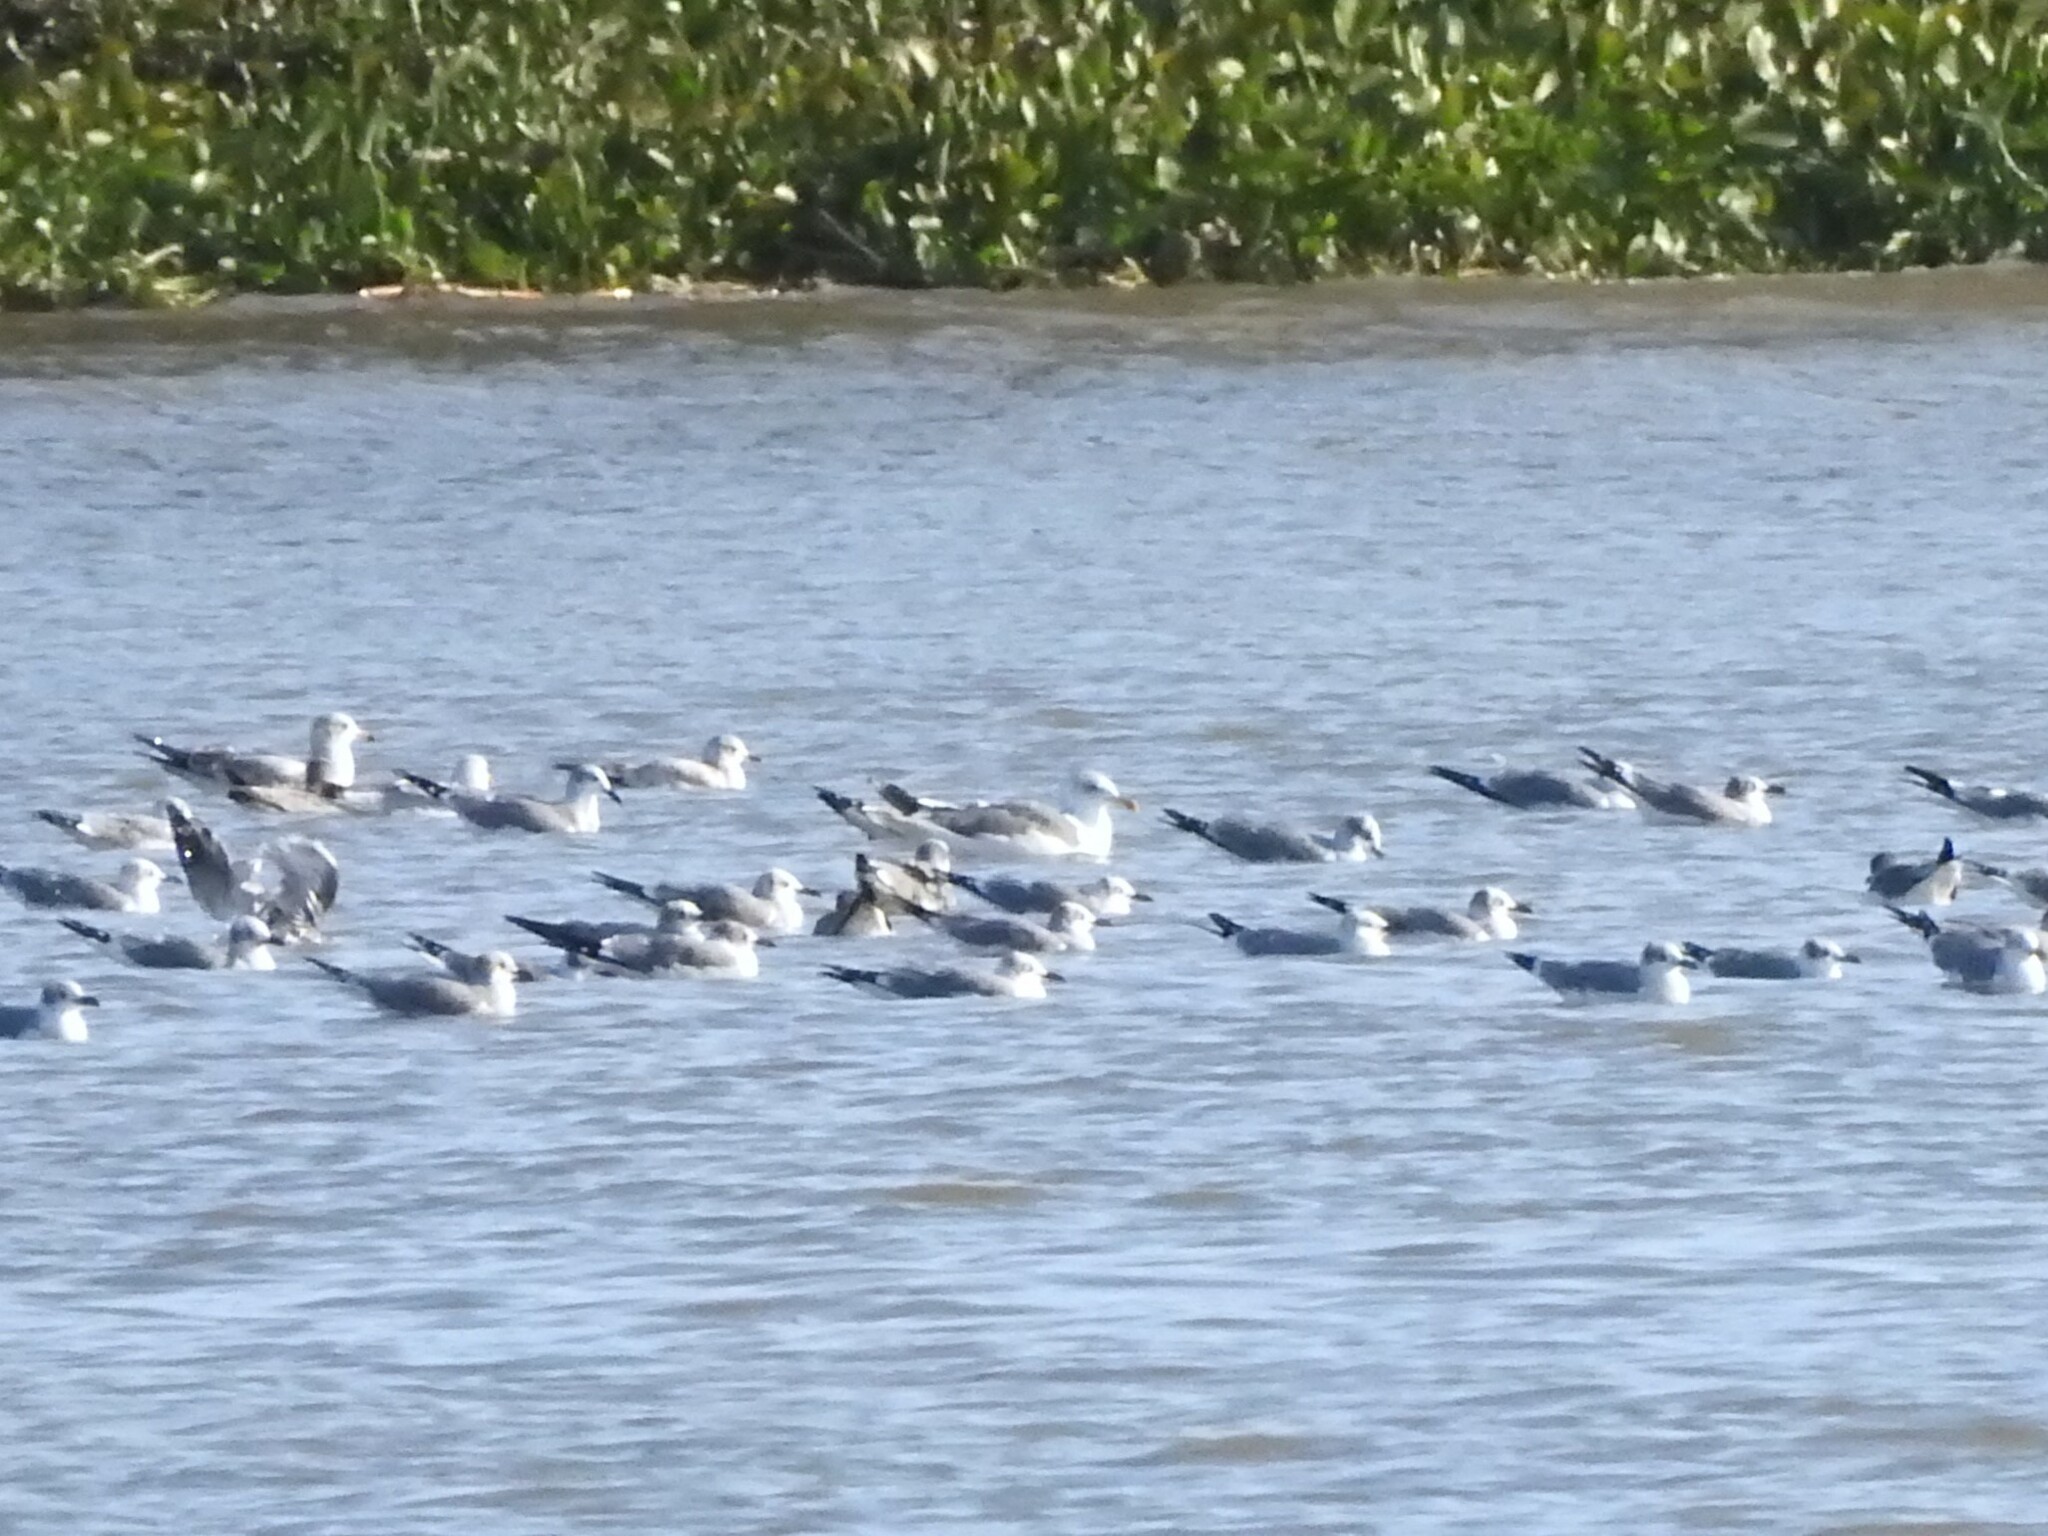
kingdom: Animalia
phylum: Chordata
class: Aves
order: Charadriiformes
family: Laridae
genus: Larus
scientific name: Larus argentatus
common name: Herring gull
